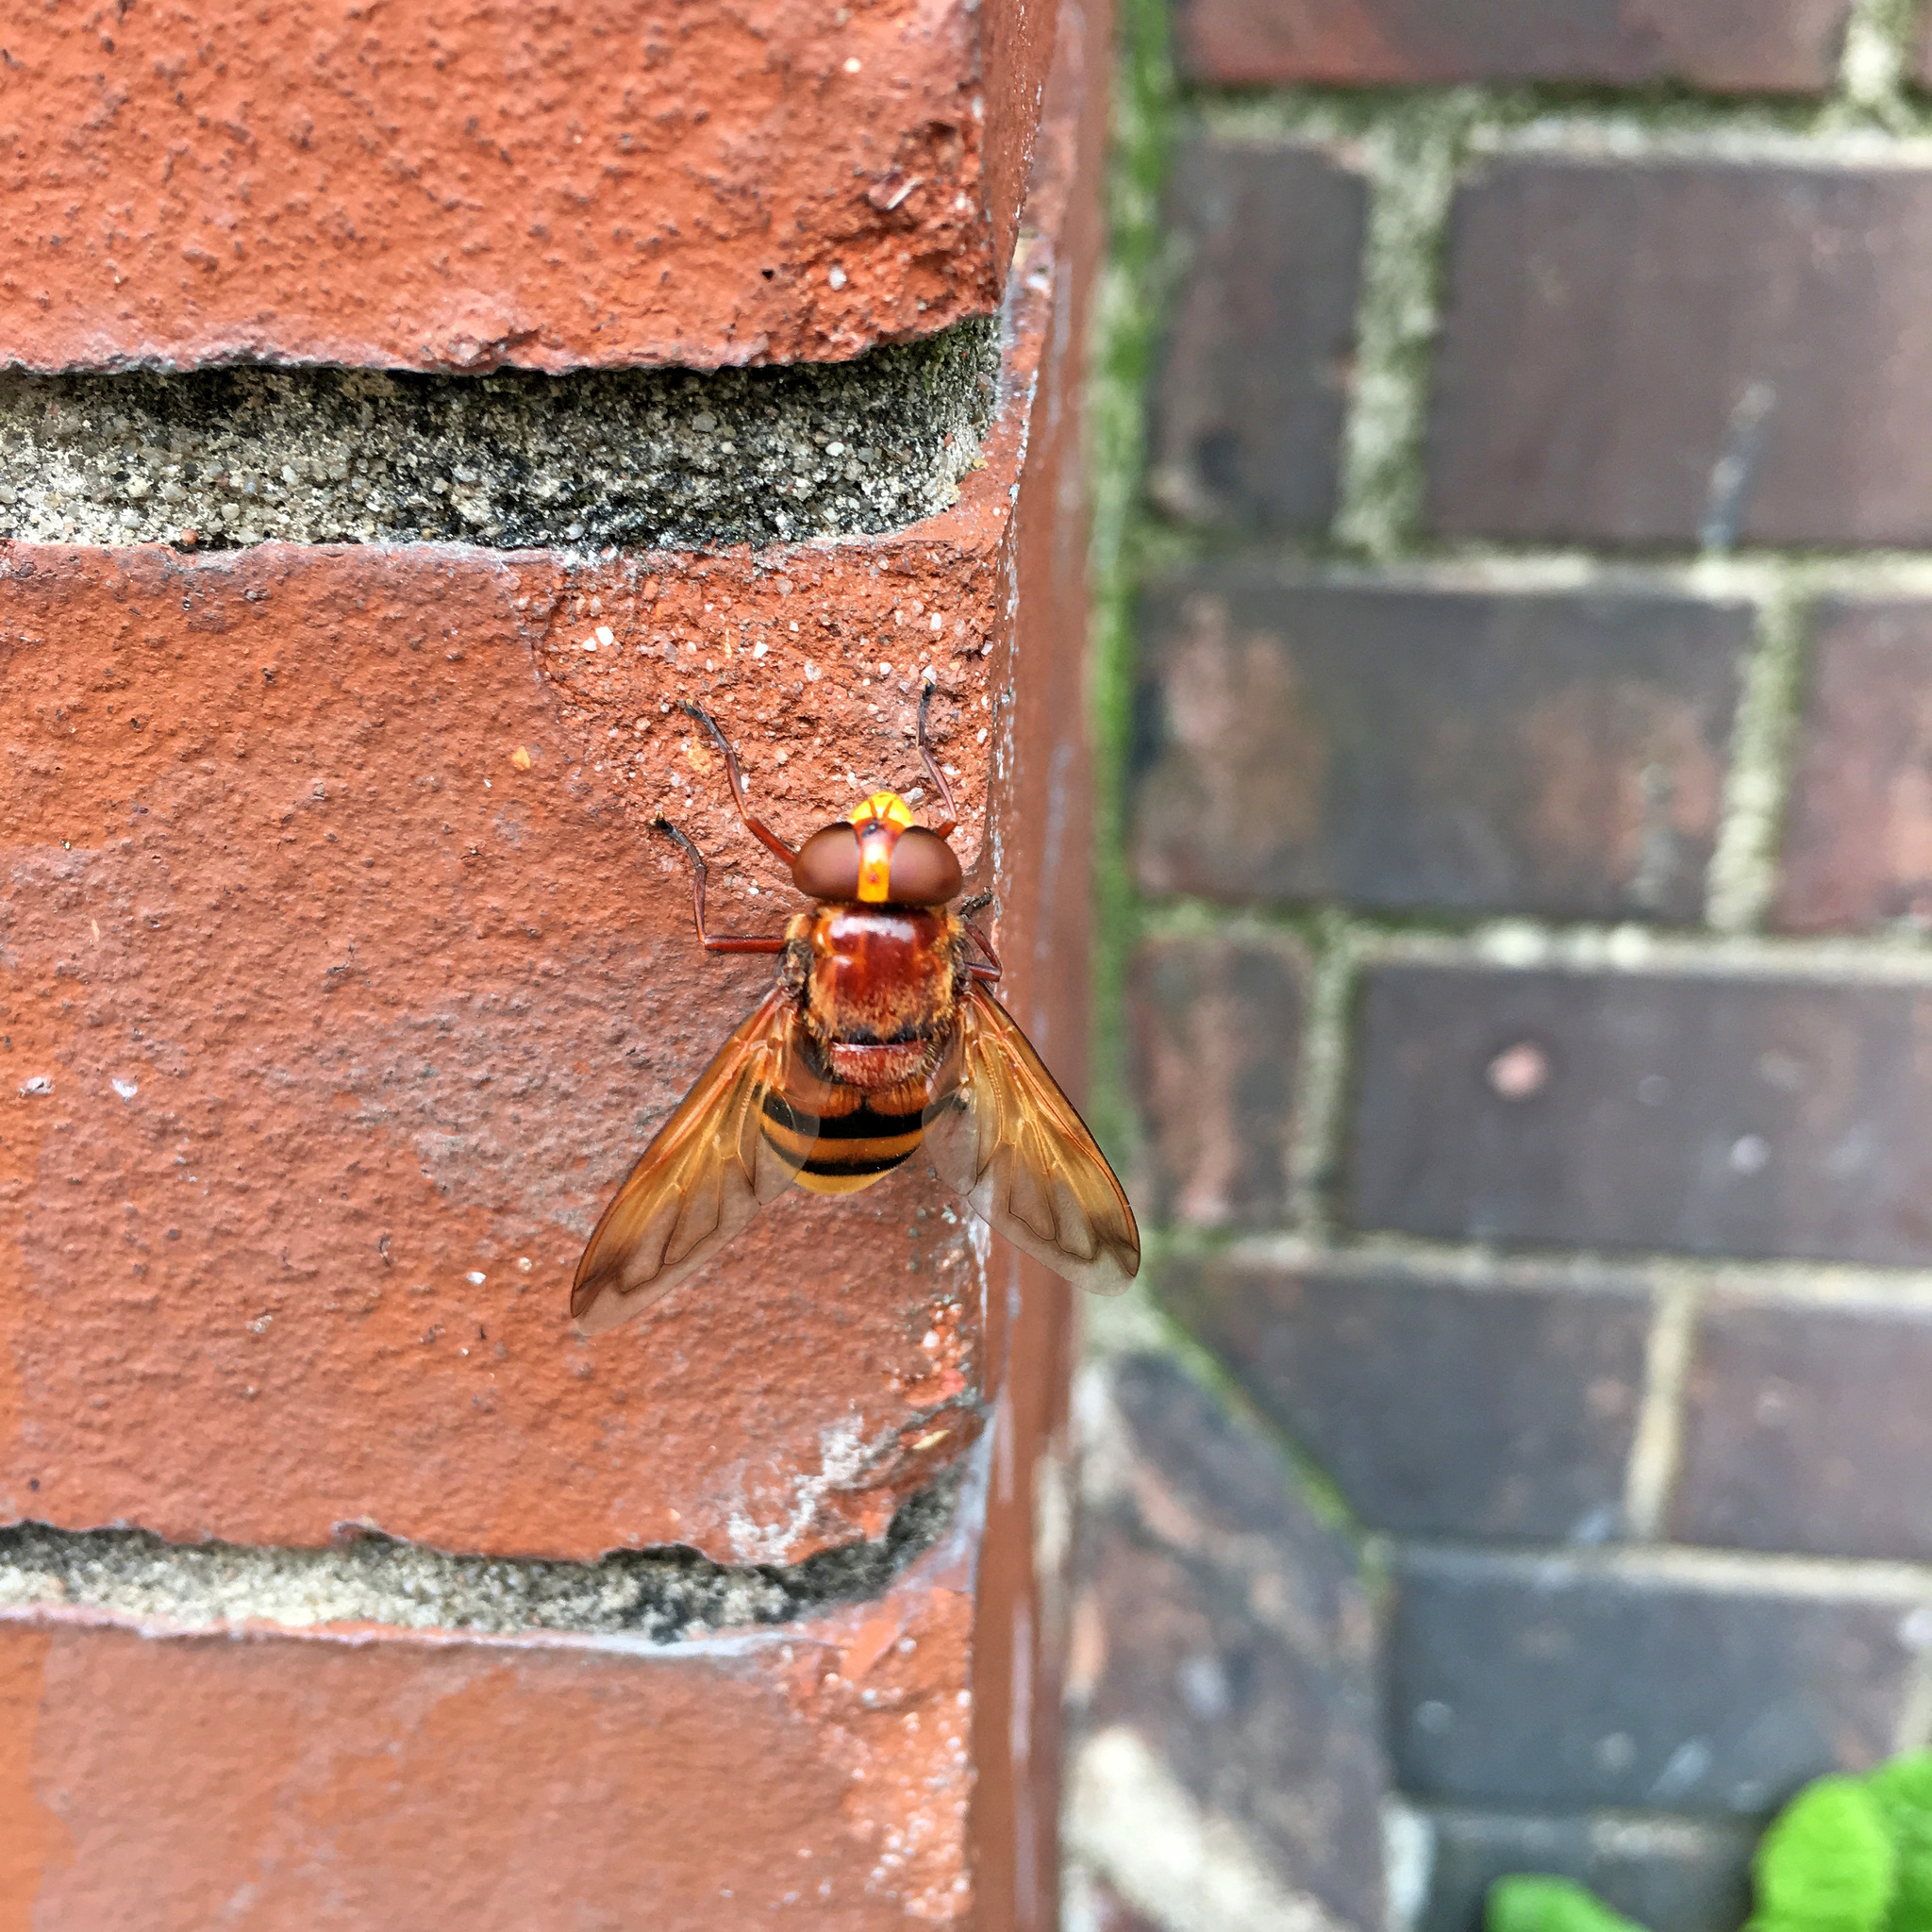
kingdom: Animalia
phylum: Arthropoda
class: Insecta
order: Diptera
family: Syrphidae
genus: Volucella
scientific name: Volucella zonaria
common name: Hornet hoverfly
